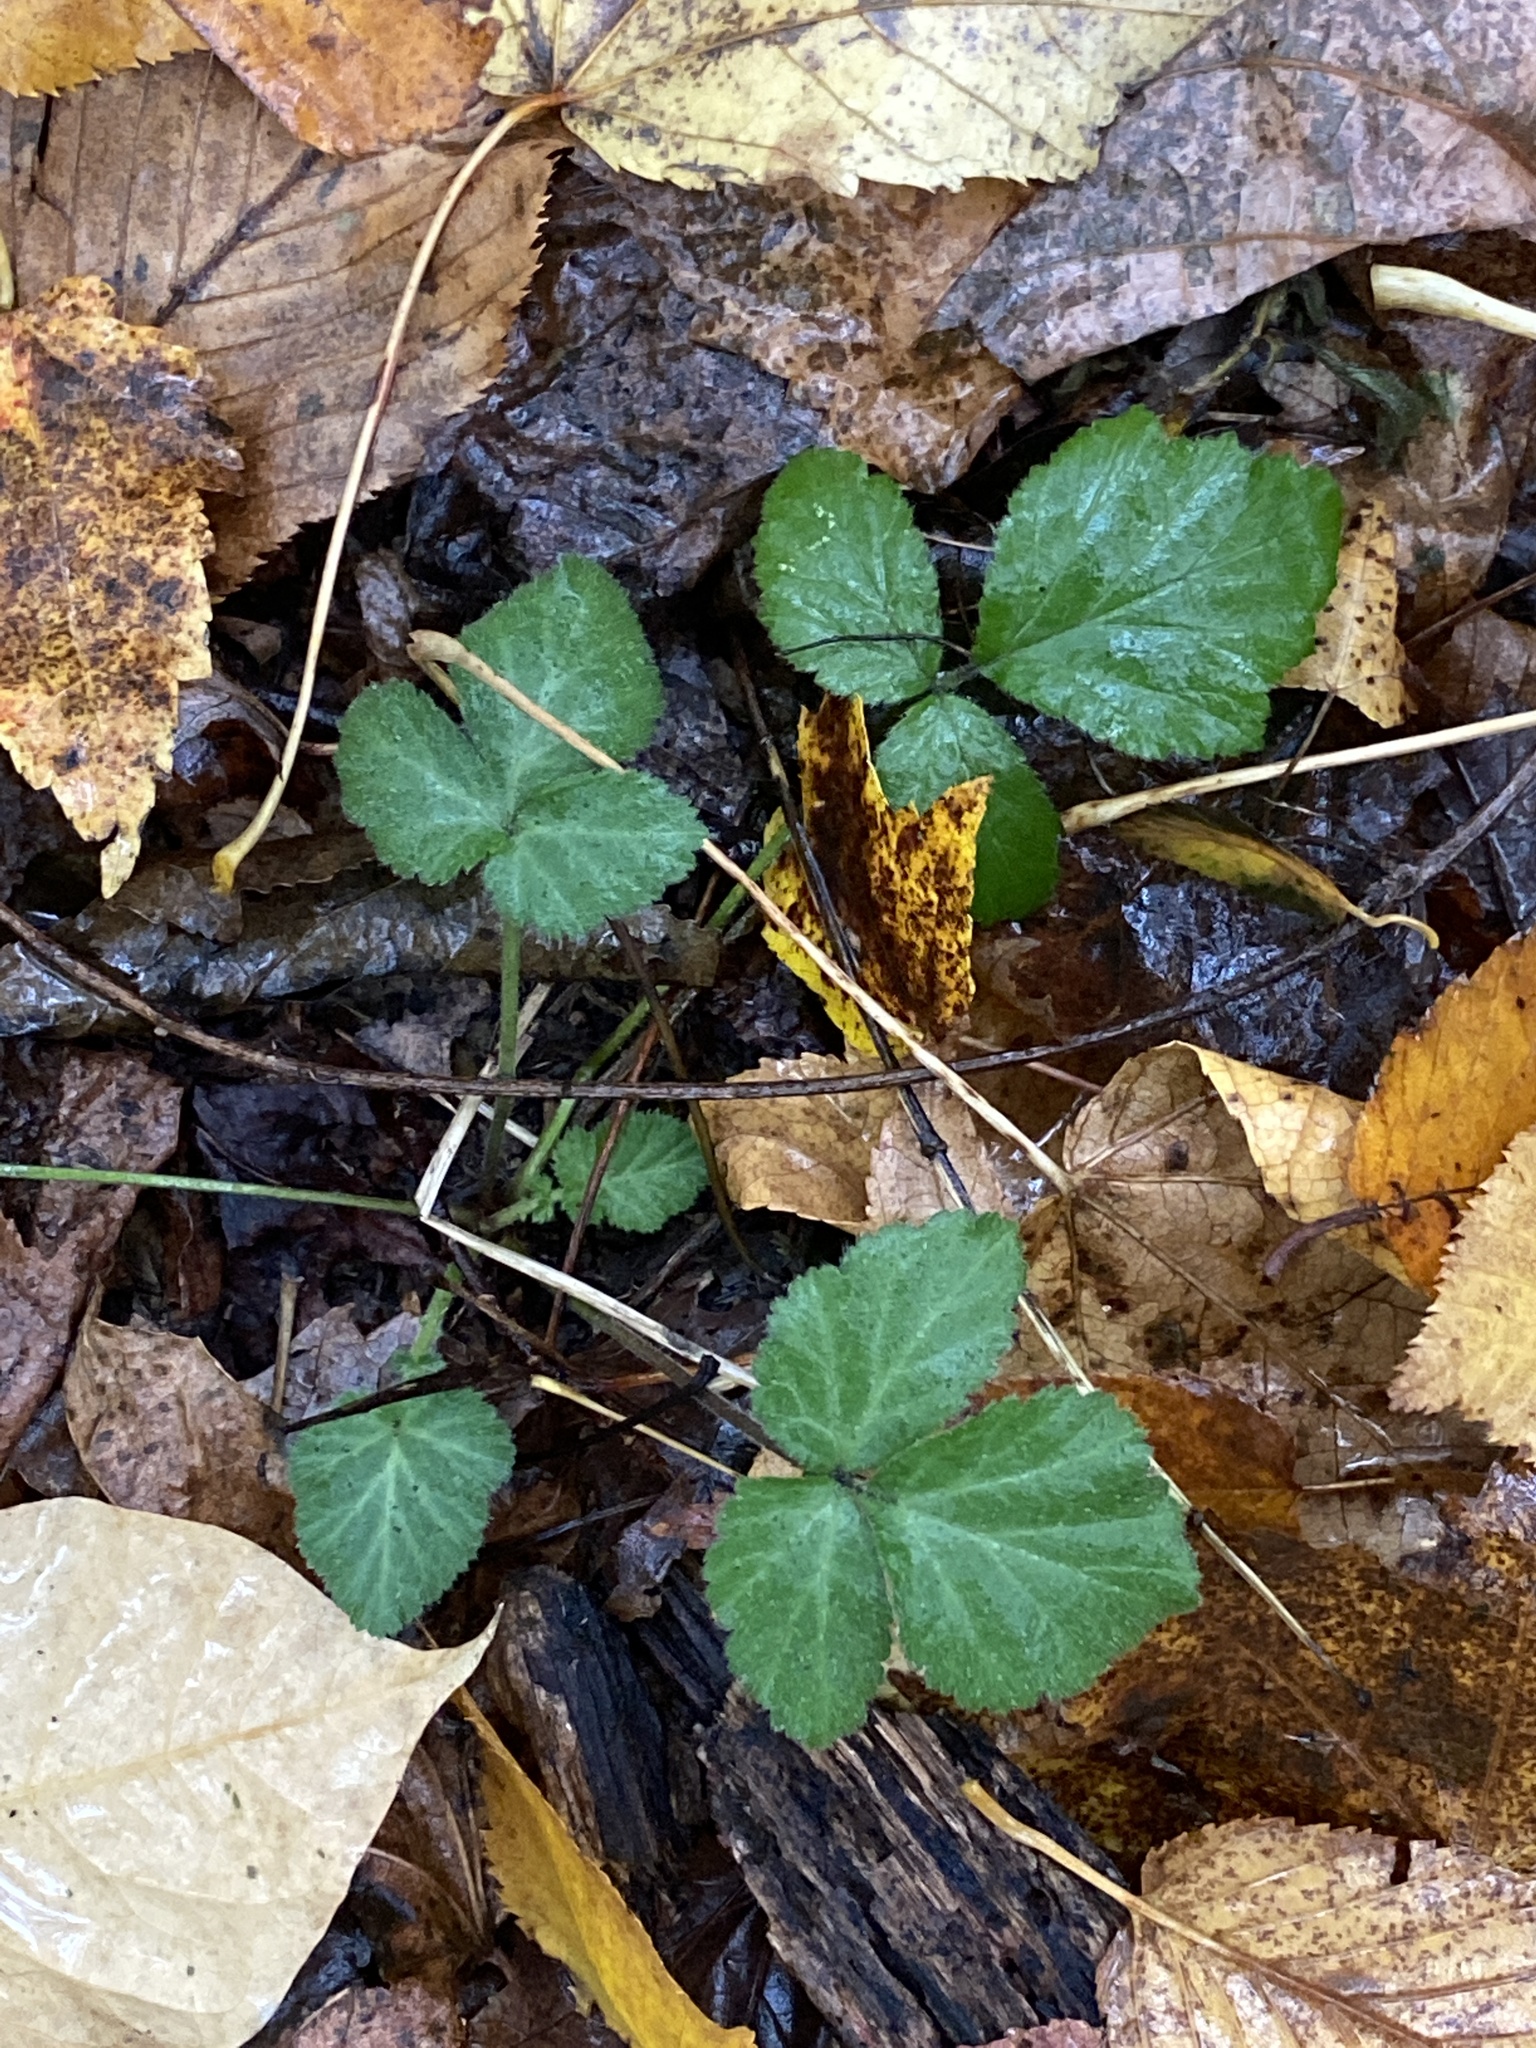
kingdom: Plantae
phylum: Tracheophyta
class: Magnoliopsida
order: Rosales
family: Rosaceae
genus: Geum
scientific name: Geum canadense
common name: White avens
